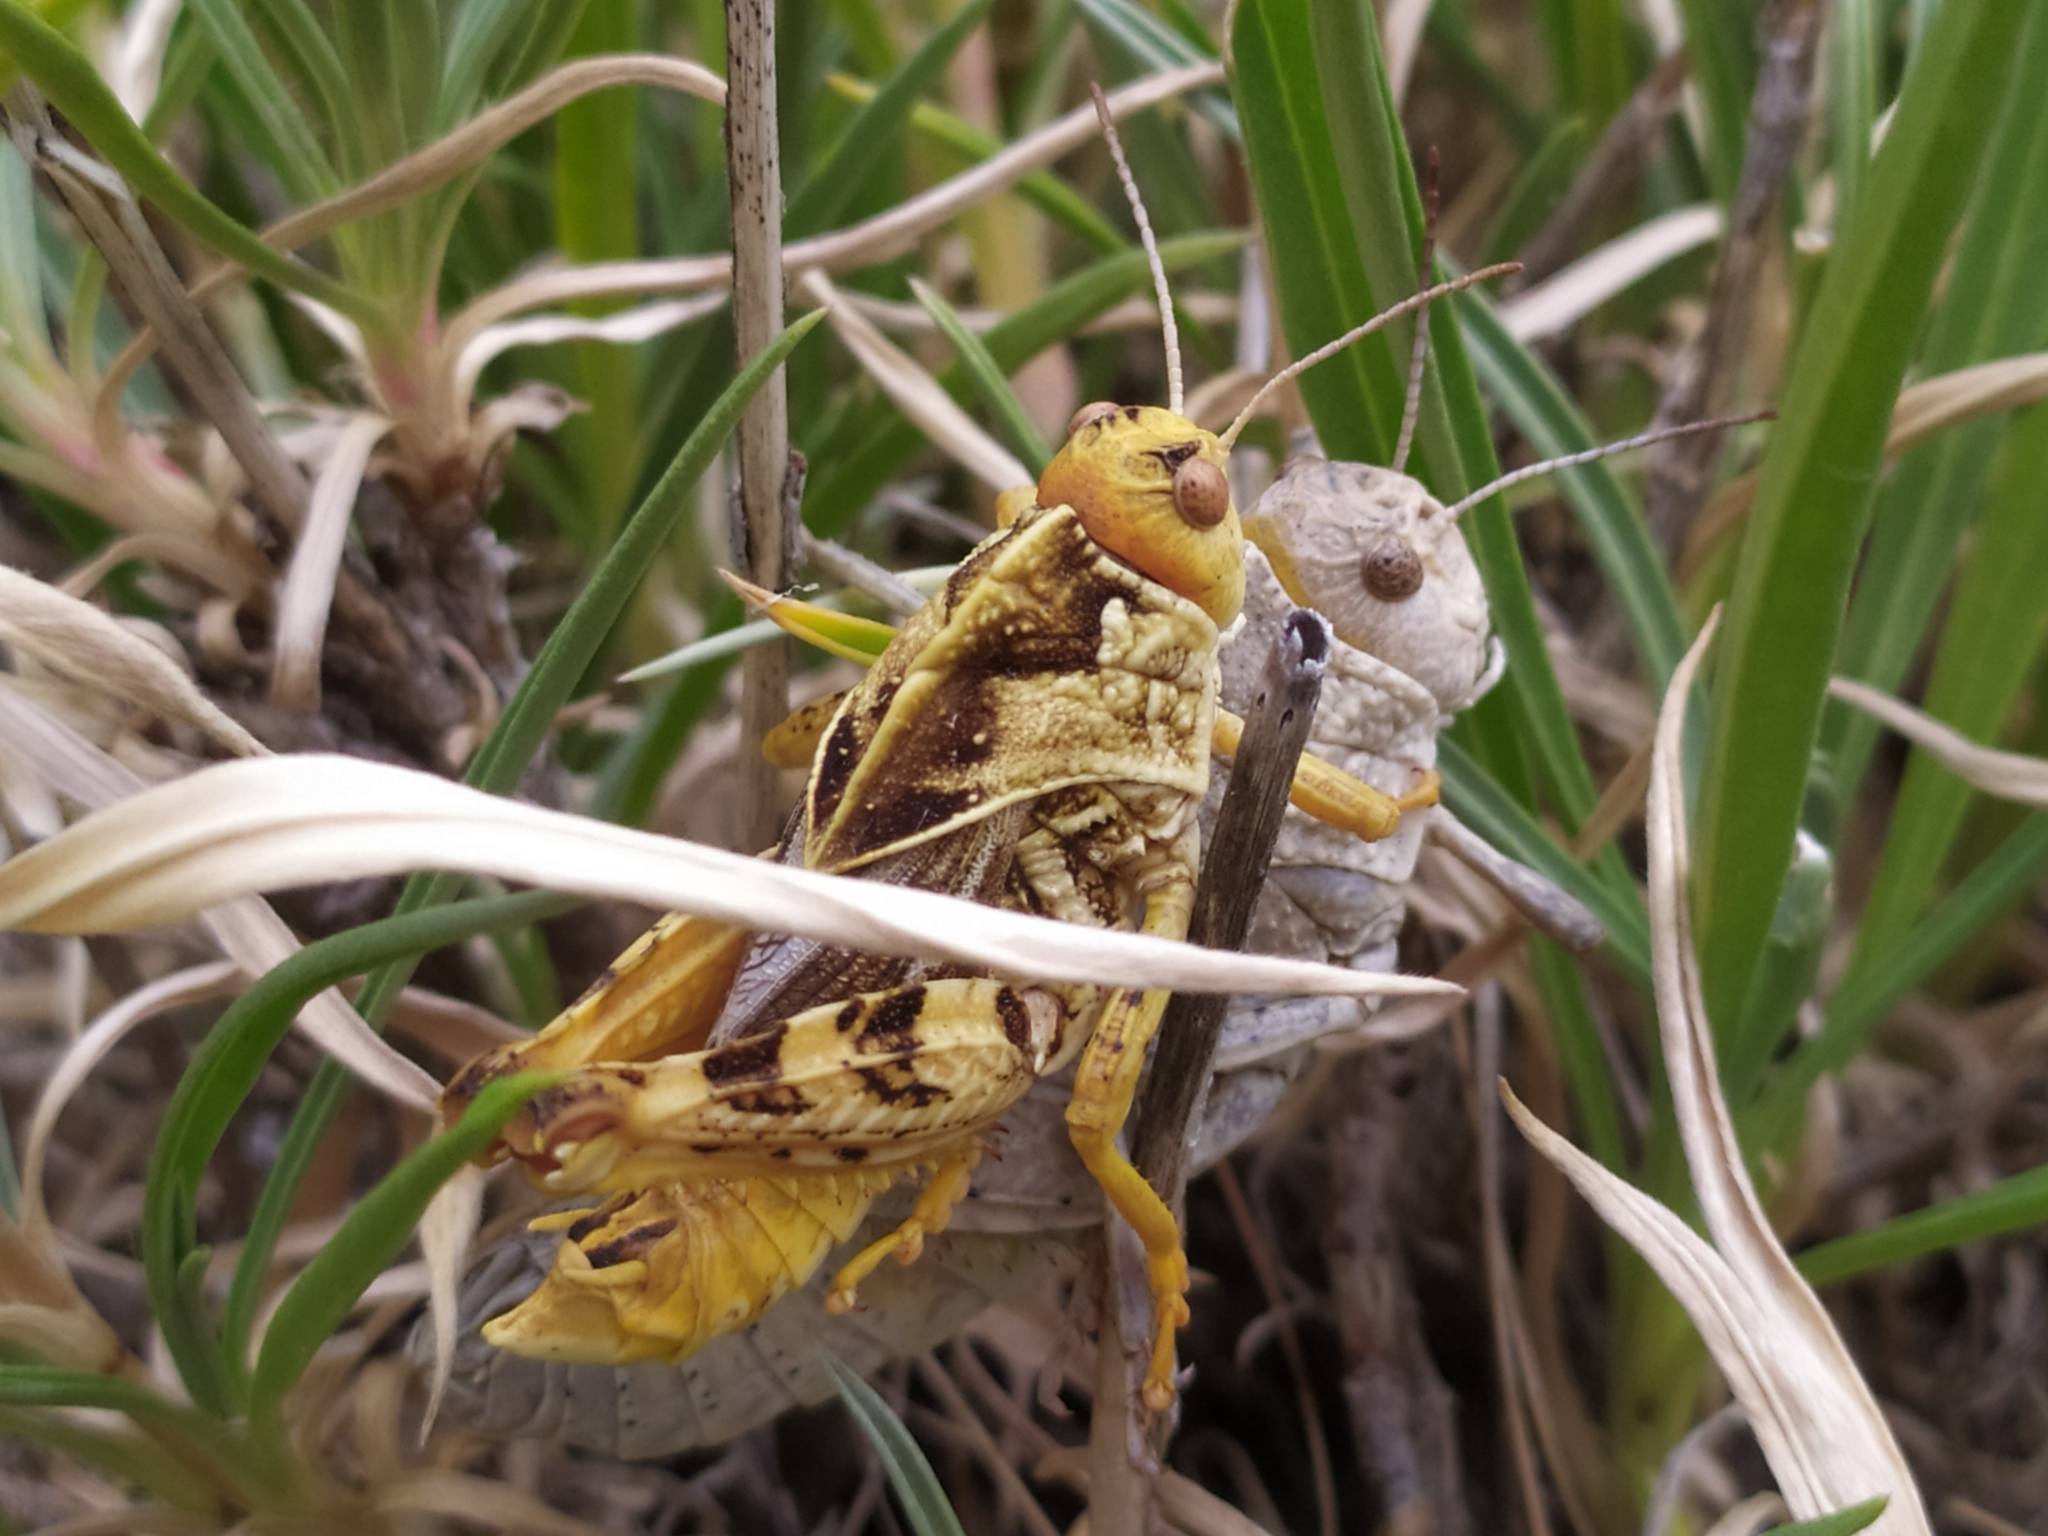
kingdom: Animalia
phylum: Arthropoda
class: Insecta
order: Orthoptera
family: Pamphagidae
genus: Prionotropis
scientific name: Prionotropis hystrix
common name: Eastern stone grasshopper
